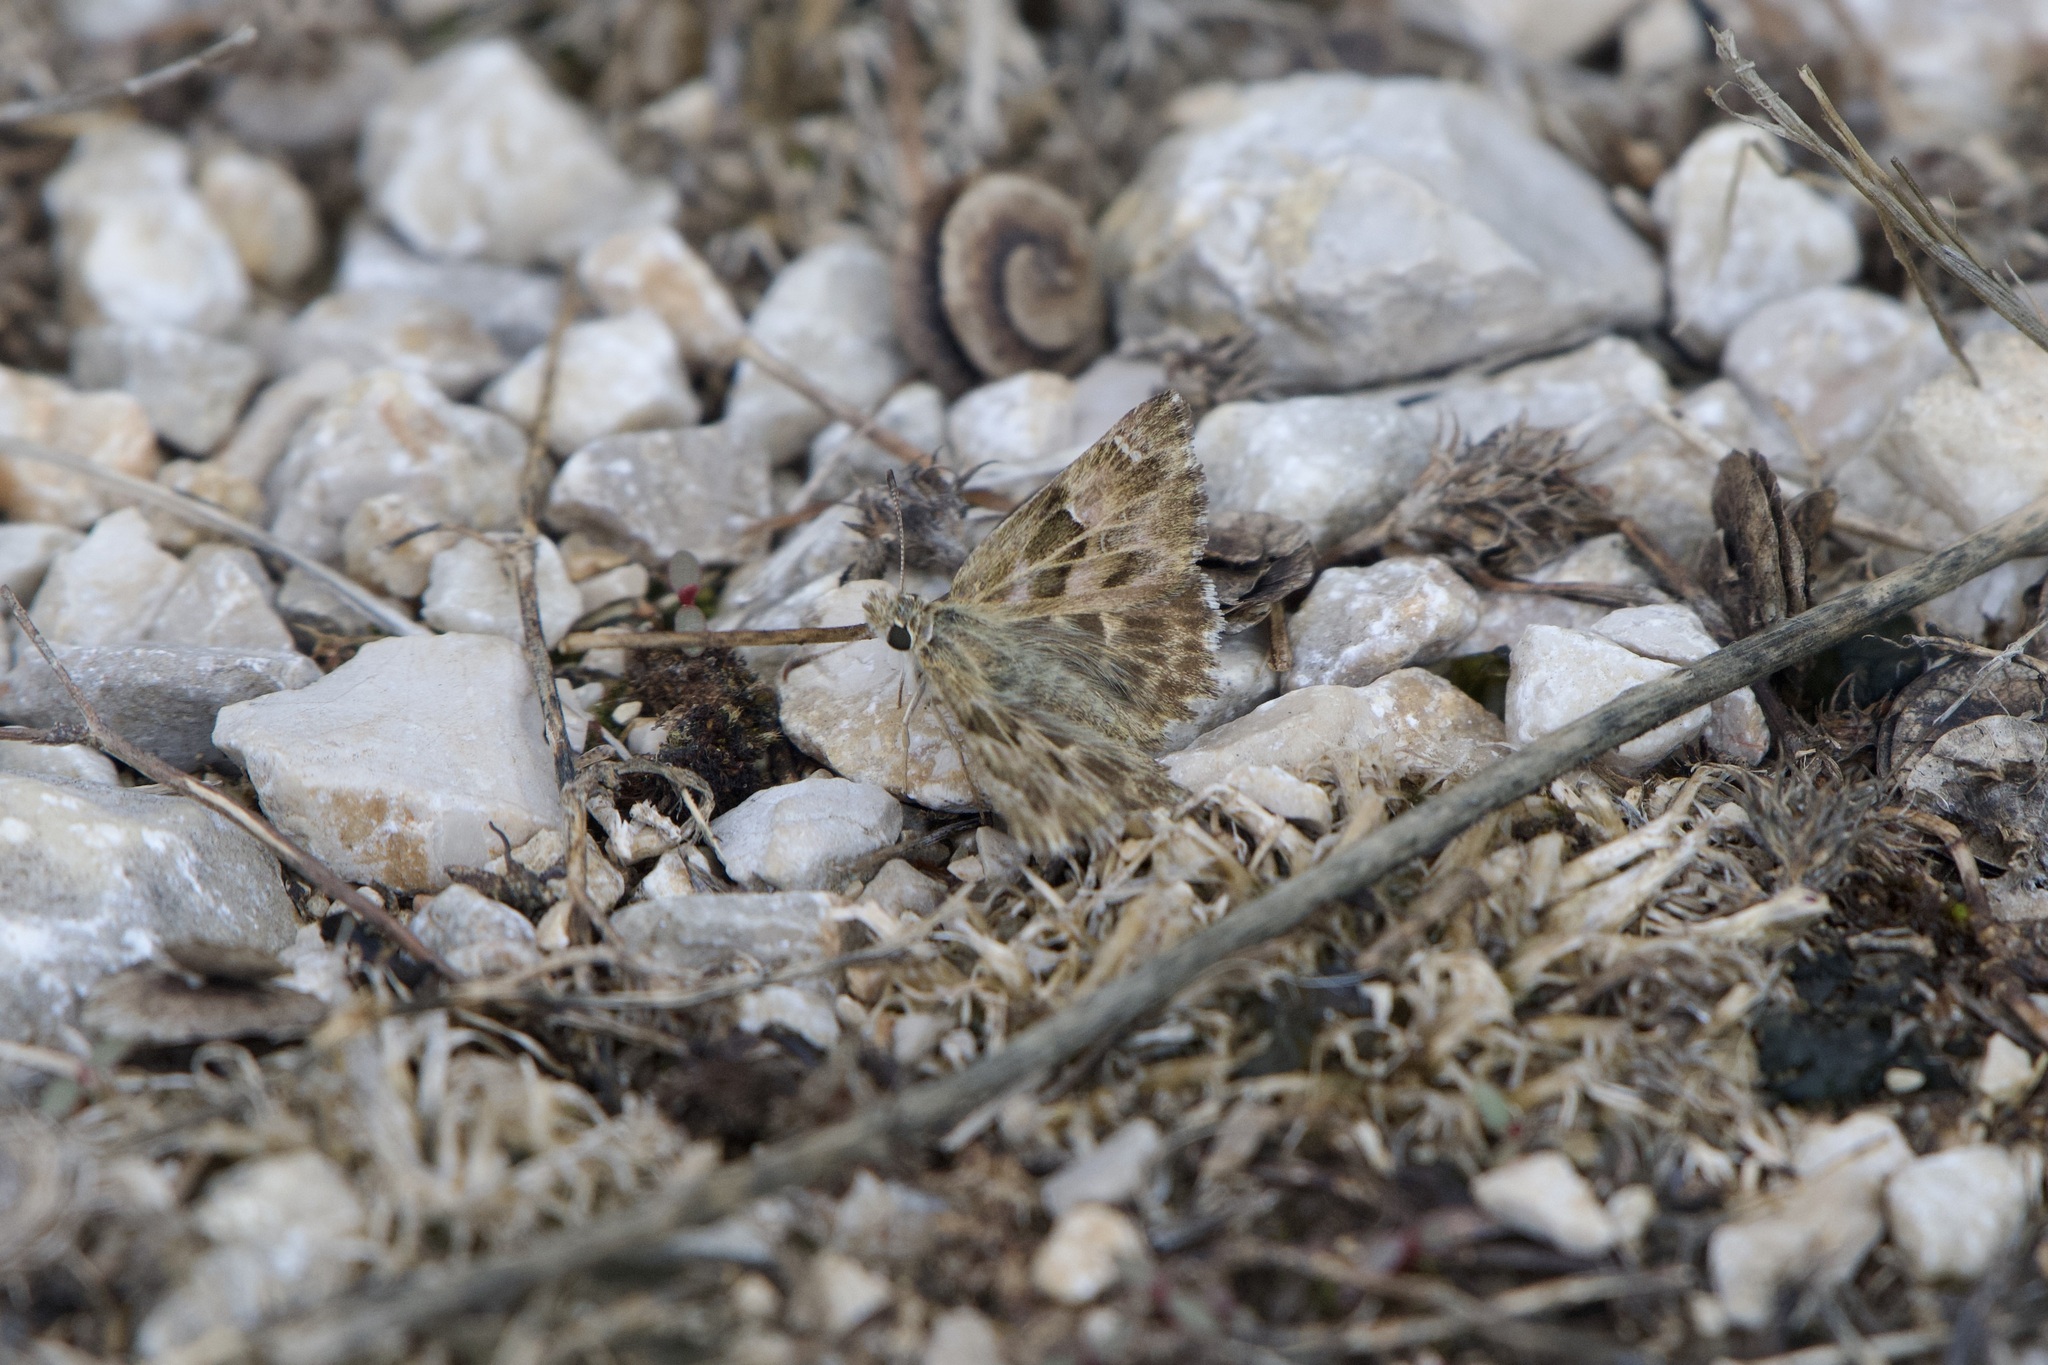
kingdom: Animalia
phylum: Arthropoda
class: Insecta
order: Lepidoptera
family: Hesperiidae
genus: Carcharodus
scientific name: Carcharodus alceae
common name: Mallow skipper
